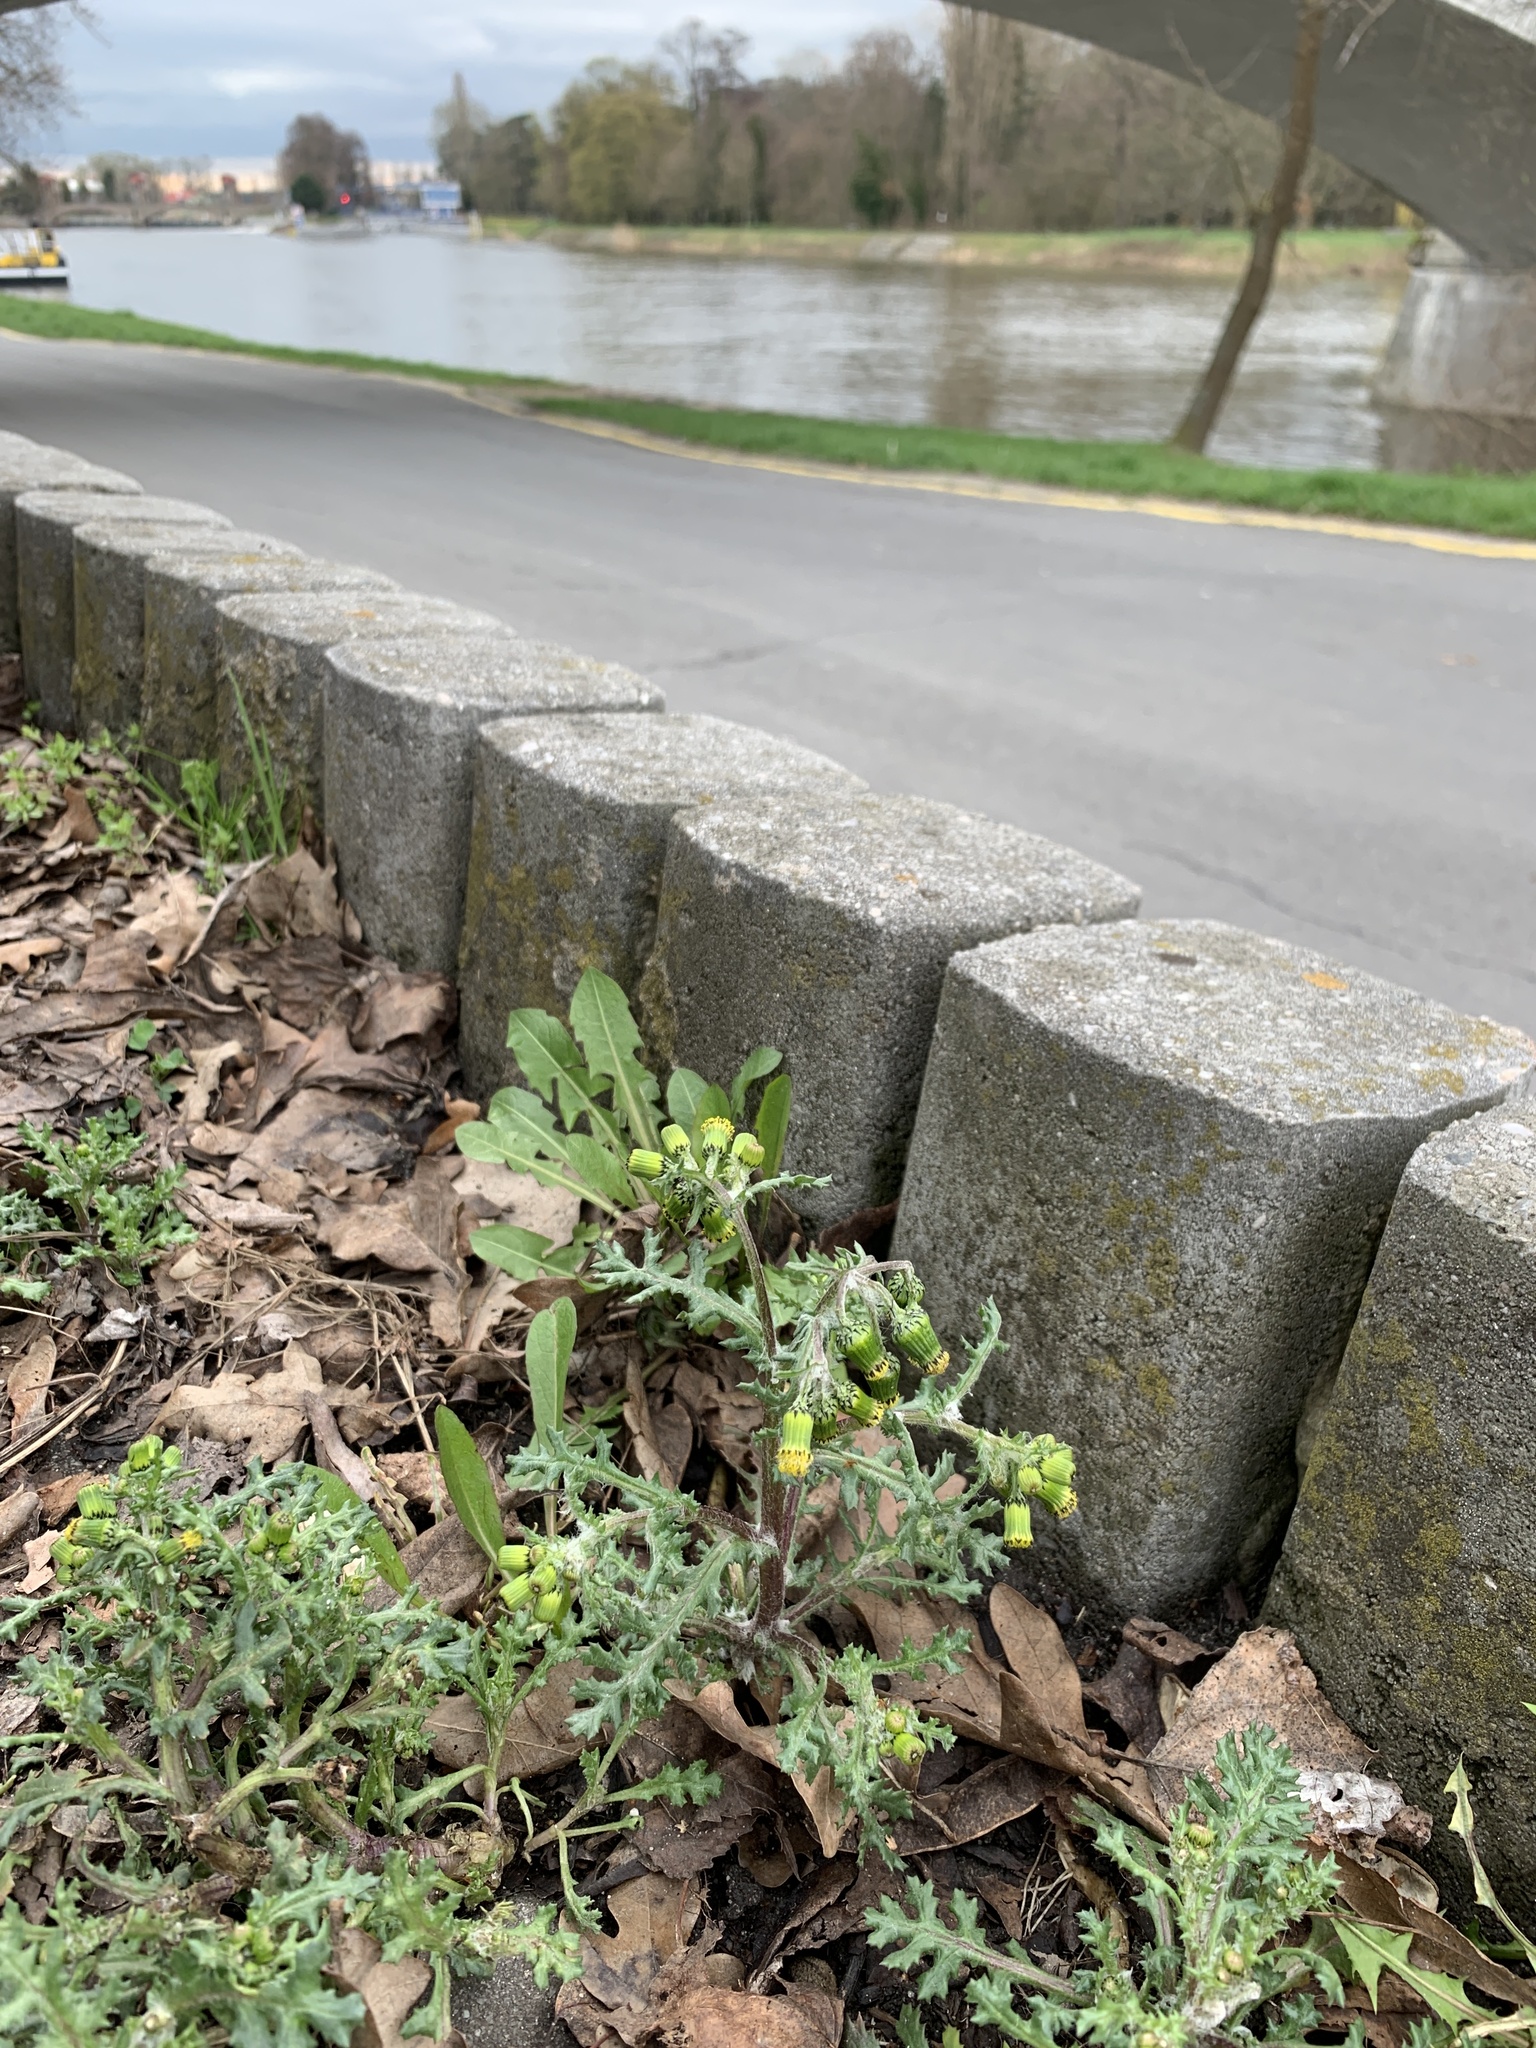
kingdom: Plantae
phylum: Tracheophyta
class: Magnoliopsida
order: Asterales
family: Asteraceae
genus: Senecio
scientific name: Senecio vulgaris
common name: Old-man-in-the-spring
